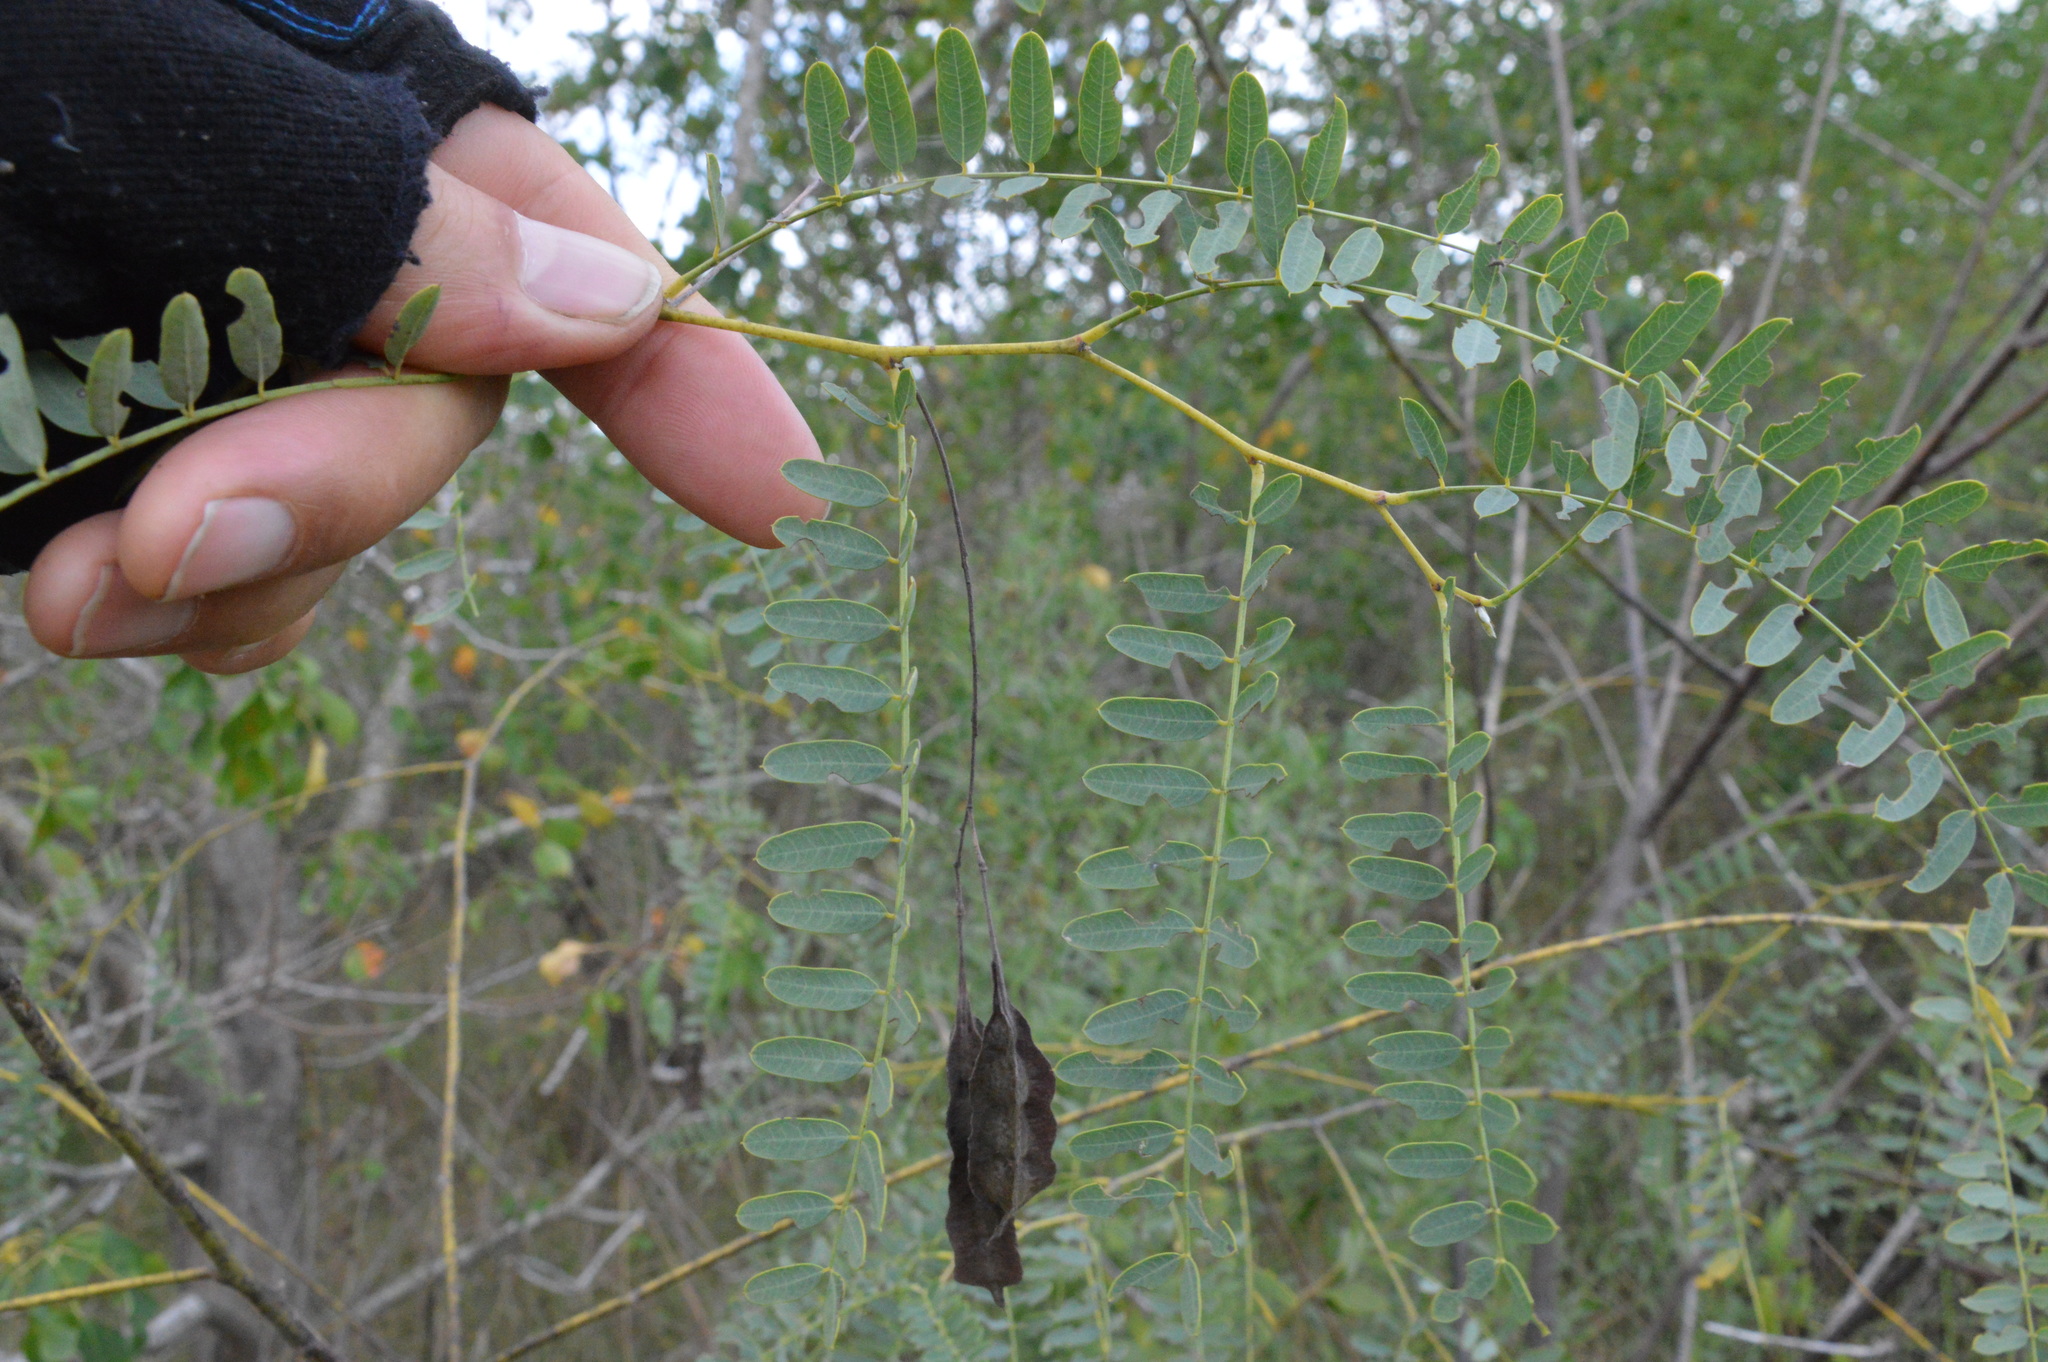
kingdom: Plantae
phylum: Tracheophyta
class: Magnoliopsida
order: Fabales
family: Fabaceae
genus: Sesbania
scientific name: Sesbania drummondii
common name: Poison-bean
